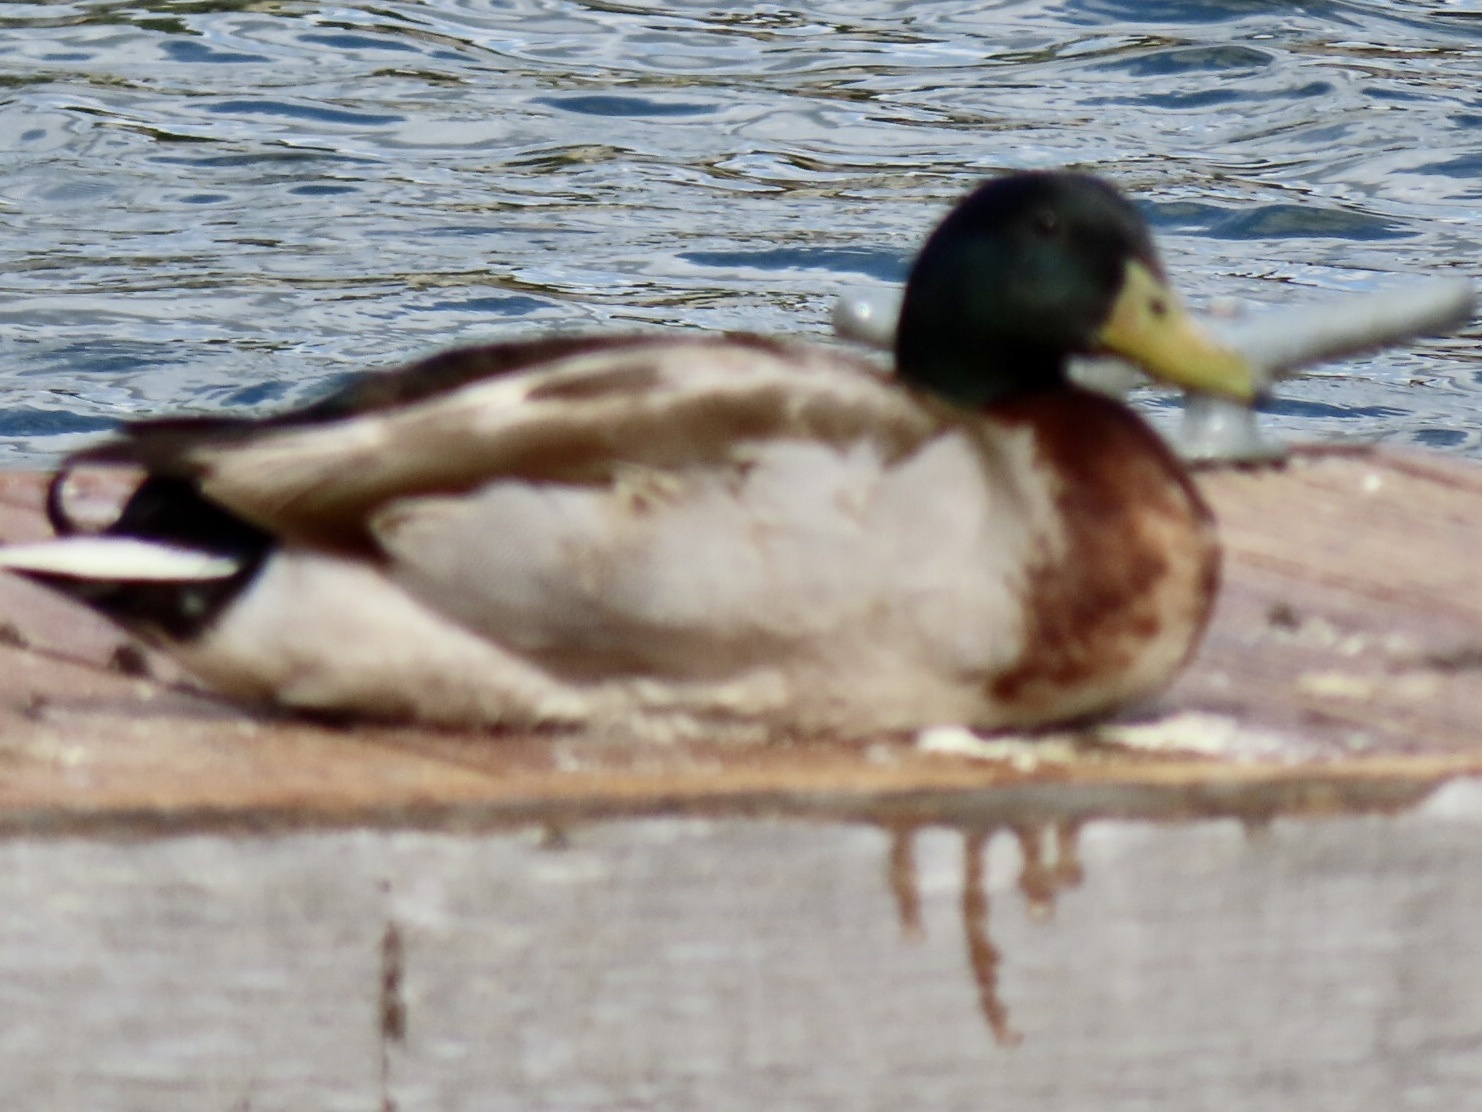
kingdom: Animalia
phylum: Chordata
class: Aves
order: Anseriformes
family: Anatidae
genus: Anas
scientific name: Anas platyrhynchos
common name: Mallard
